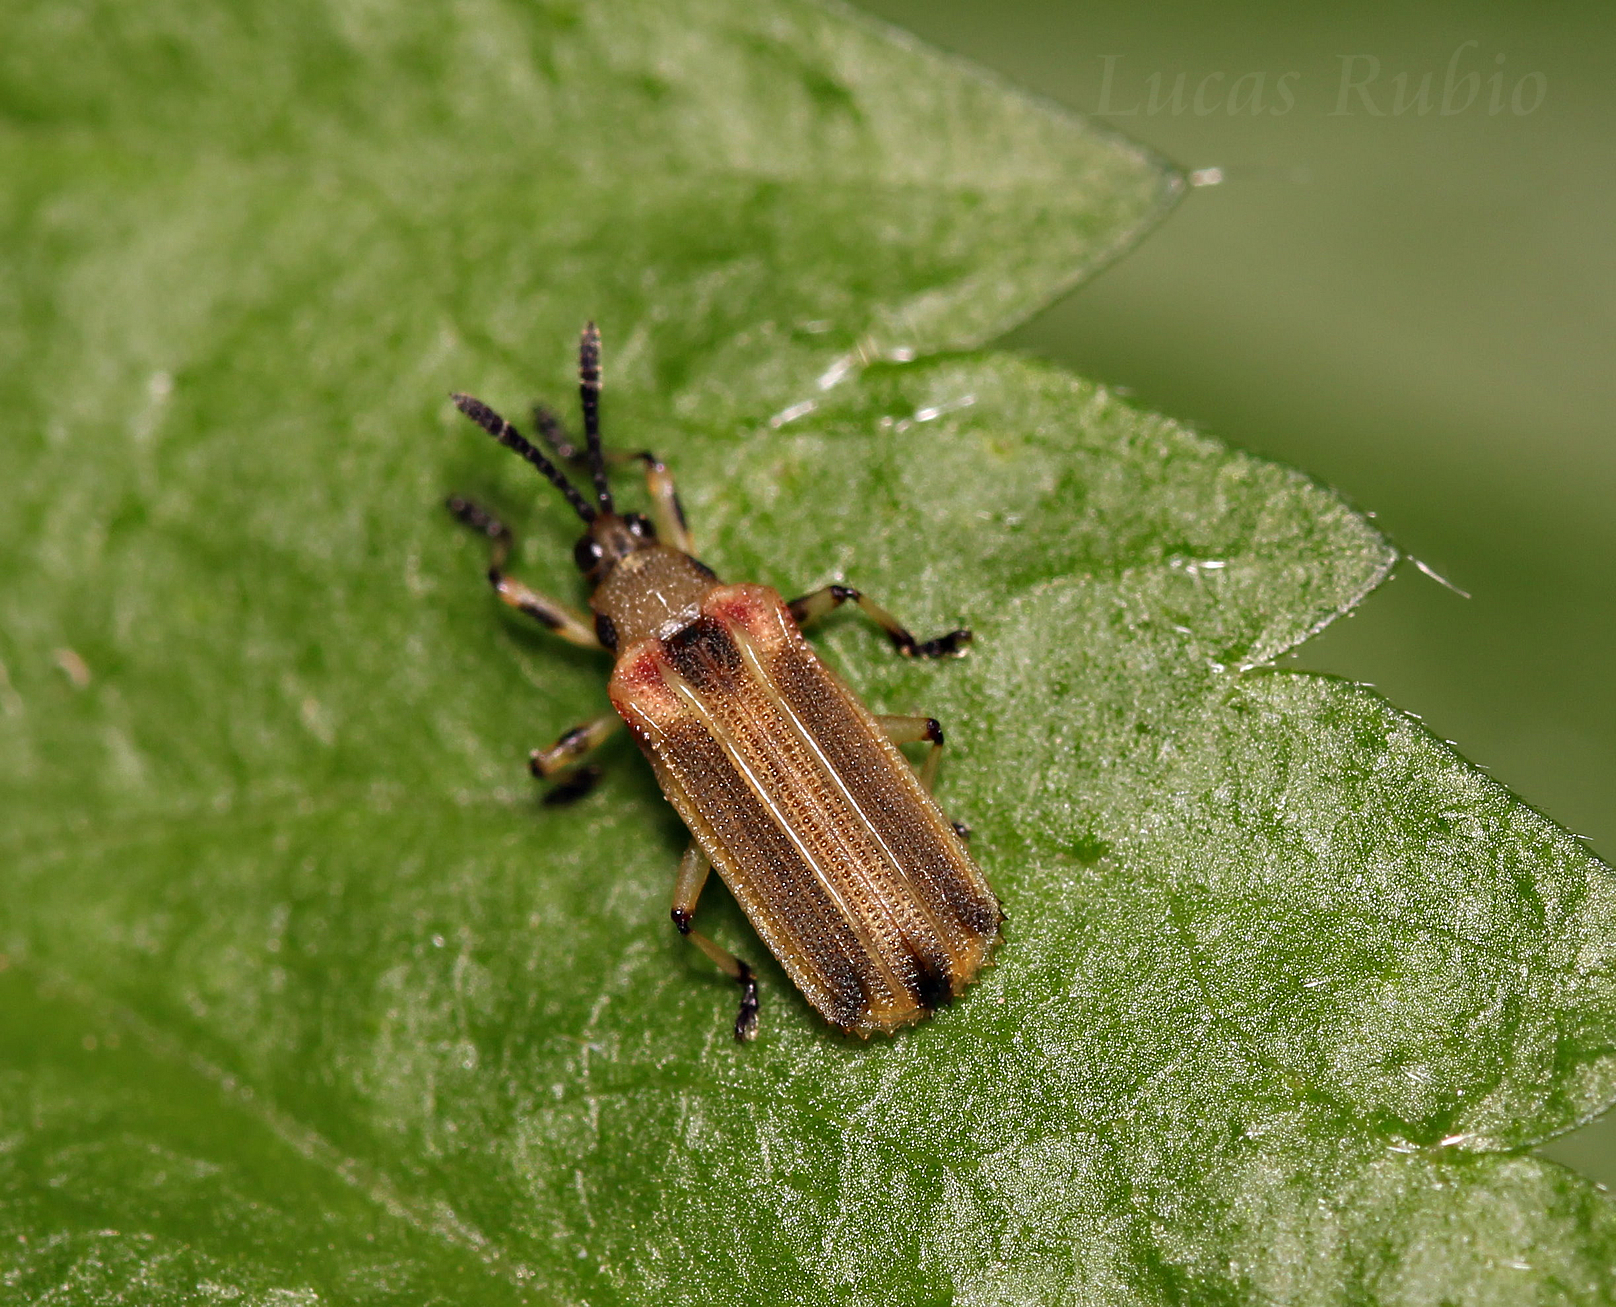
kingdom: Animalia
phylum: Arthropoda
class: Insecta
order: Coleoptera
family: Chrysomelidae
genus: Heterispa
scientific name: Heterispa costipennis
